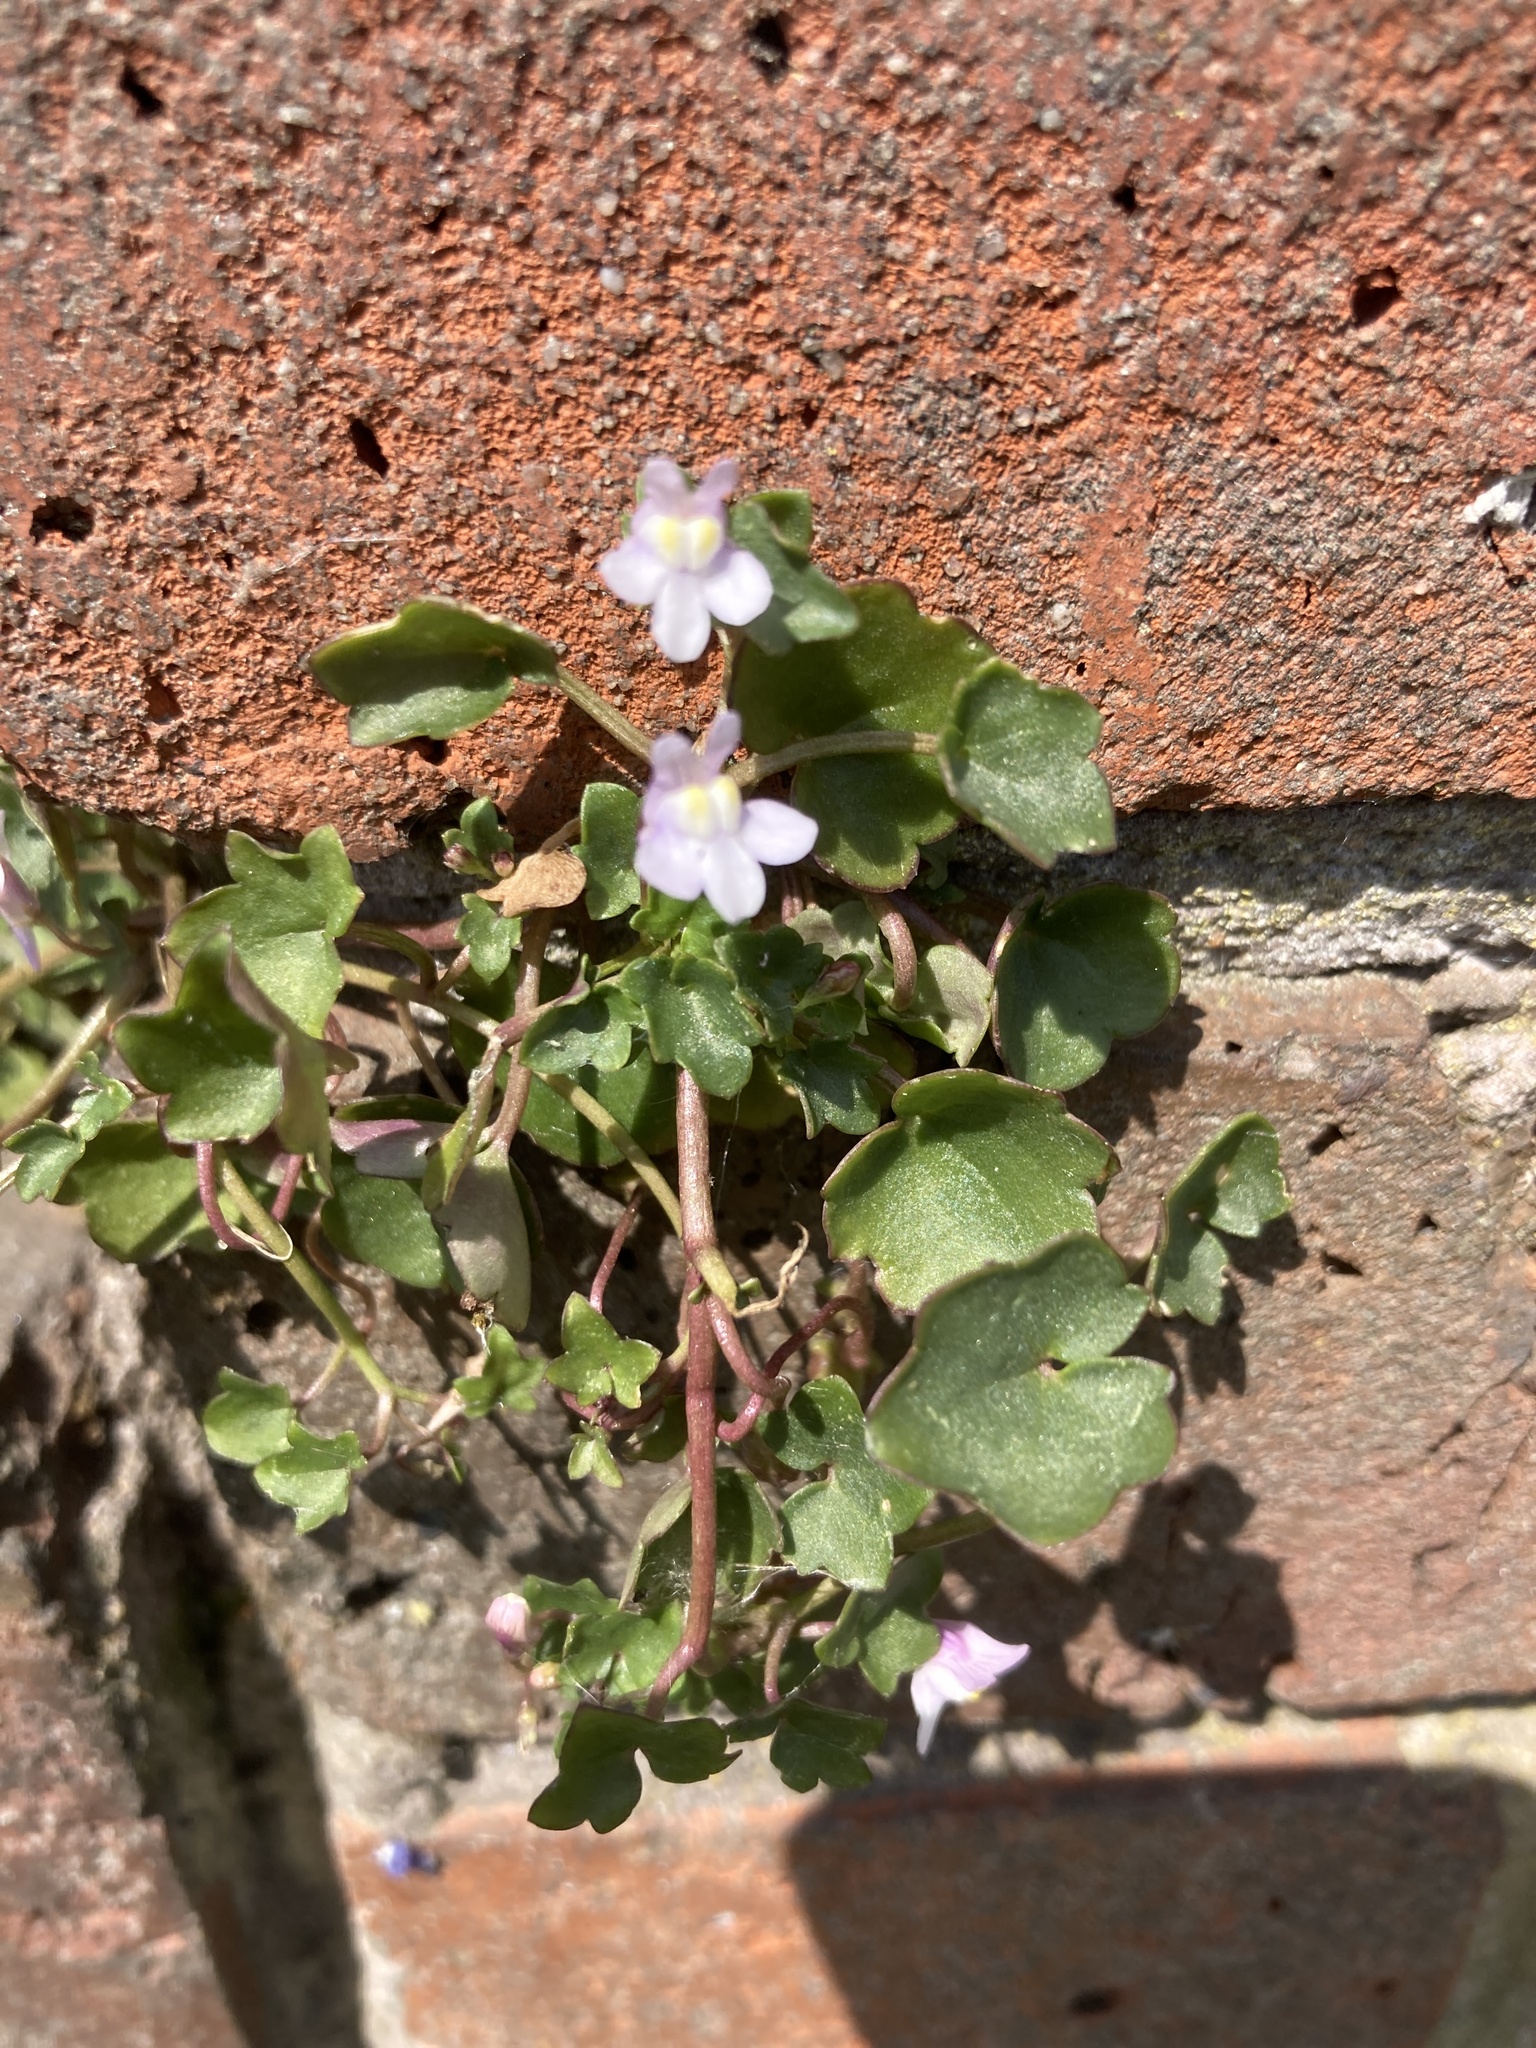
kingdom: Plantae
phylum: Tracheophyta
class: Magnoliopsida
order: Lamiales
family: Plantaginaceae
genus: Cymbalaria
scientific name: Cymbalaria muralis
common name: Ivy-leaved toadflax
